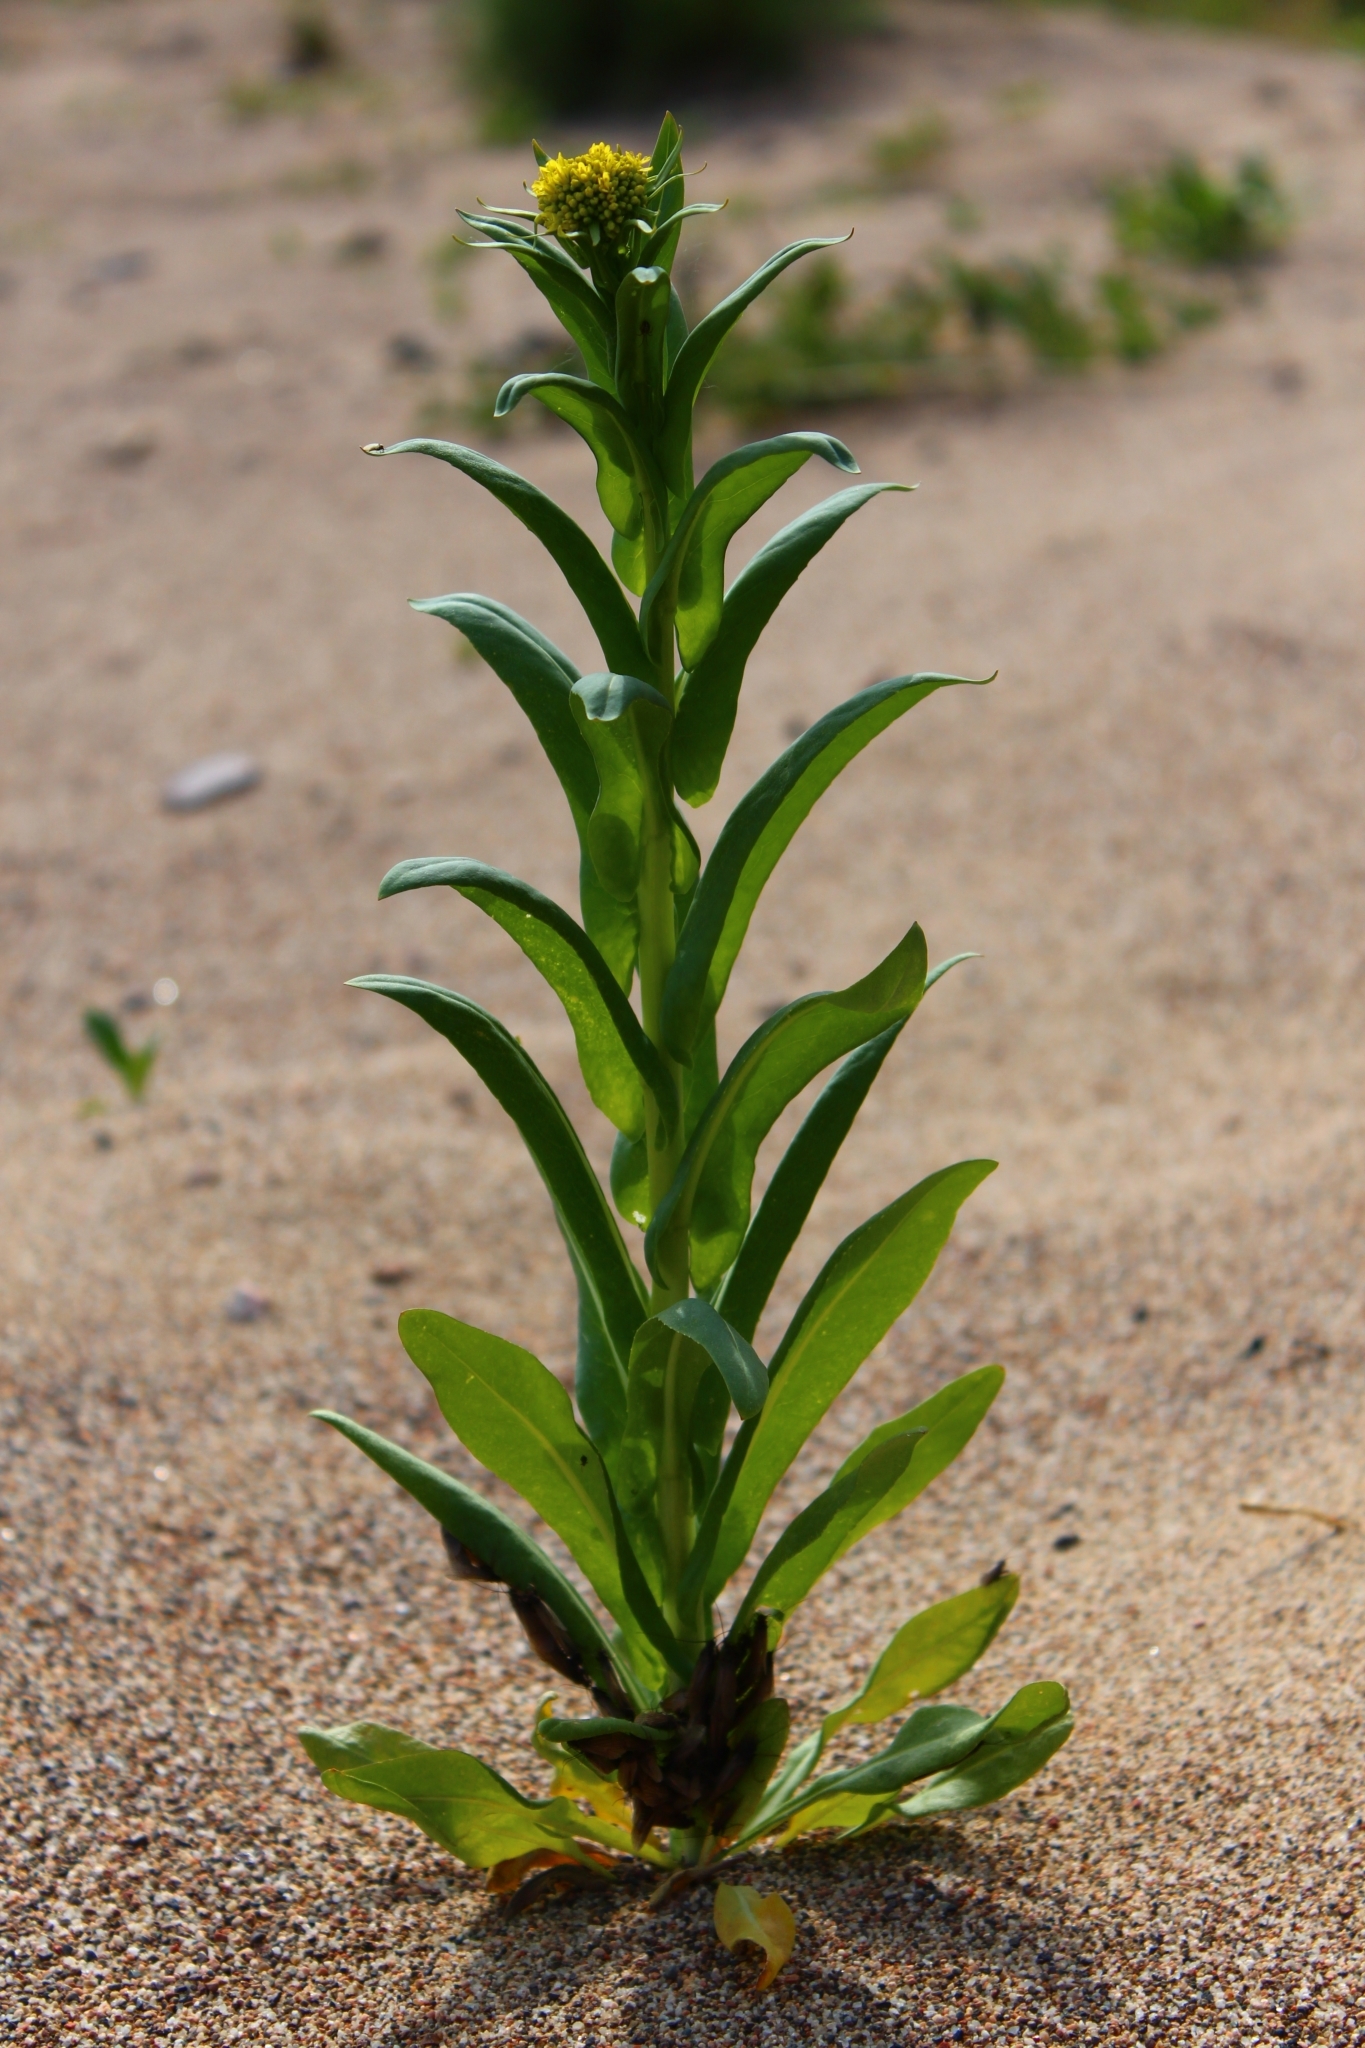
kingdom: Plantae
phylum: Tracheophyta
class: Magnoliopsida
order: Brassicales
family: Brassicaceae
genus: Isatis
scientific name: Isatis tinctoria
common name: Woad
